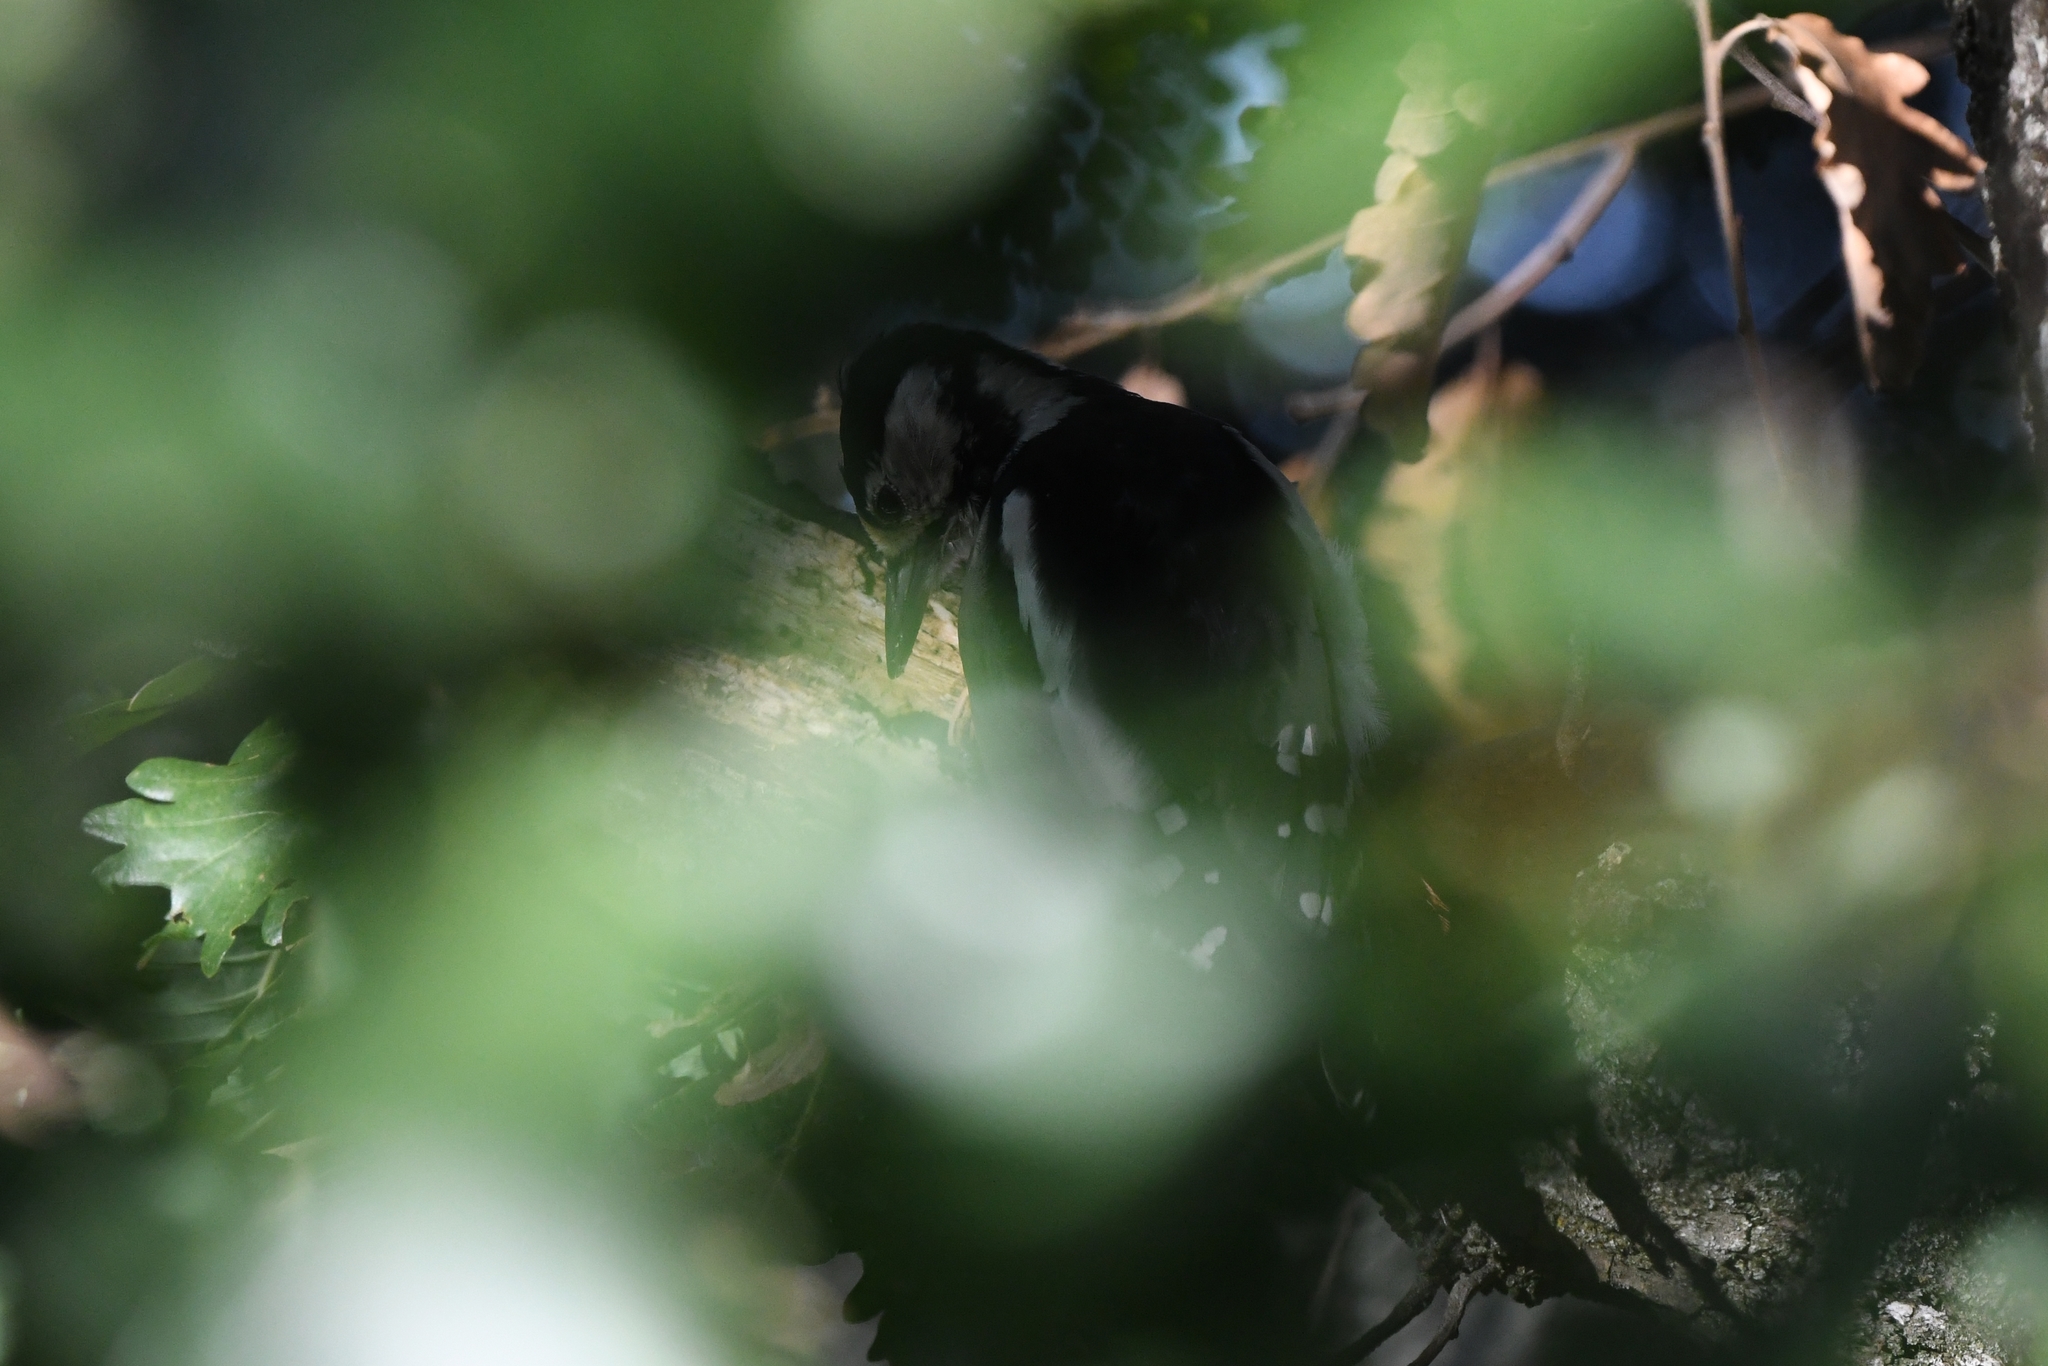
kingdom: Animalia
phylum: Chordata
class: Aves
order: Piciformes
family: Picidae
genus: Dendrocopos
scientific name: Dendrocopos major
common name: Great spotted woodpecker
